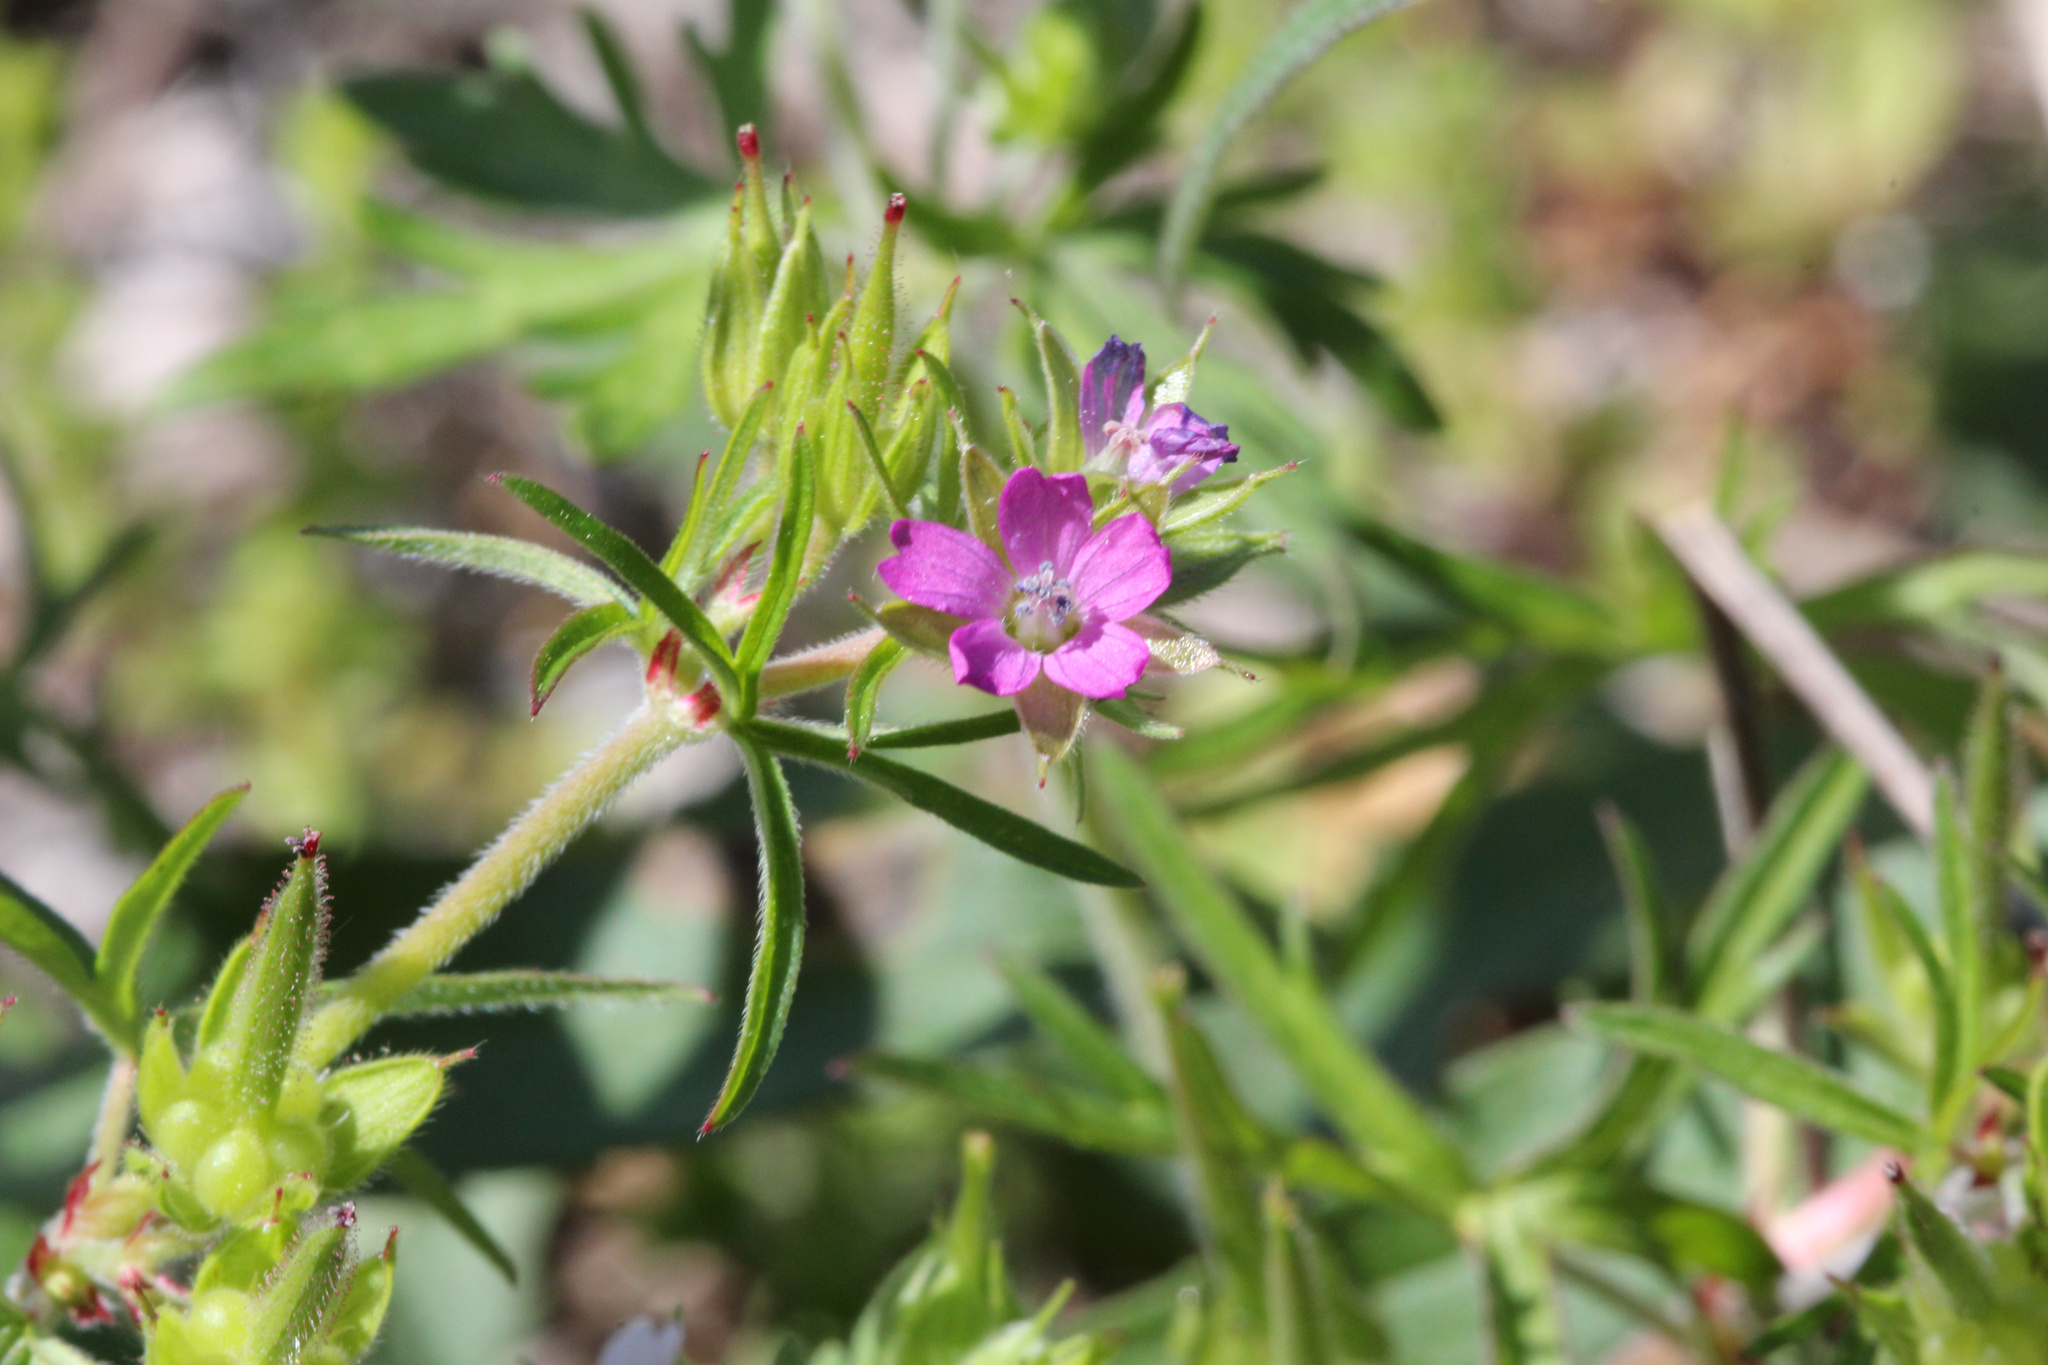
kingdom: Plantae
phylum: Tracheophyta
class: Magnoliopsida
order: Geraniales
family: Geraniaceae
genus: Geranium
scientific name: Geranium dissectum
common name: Cut-leaved crane's-bill
